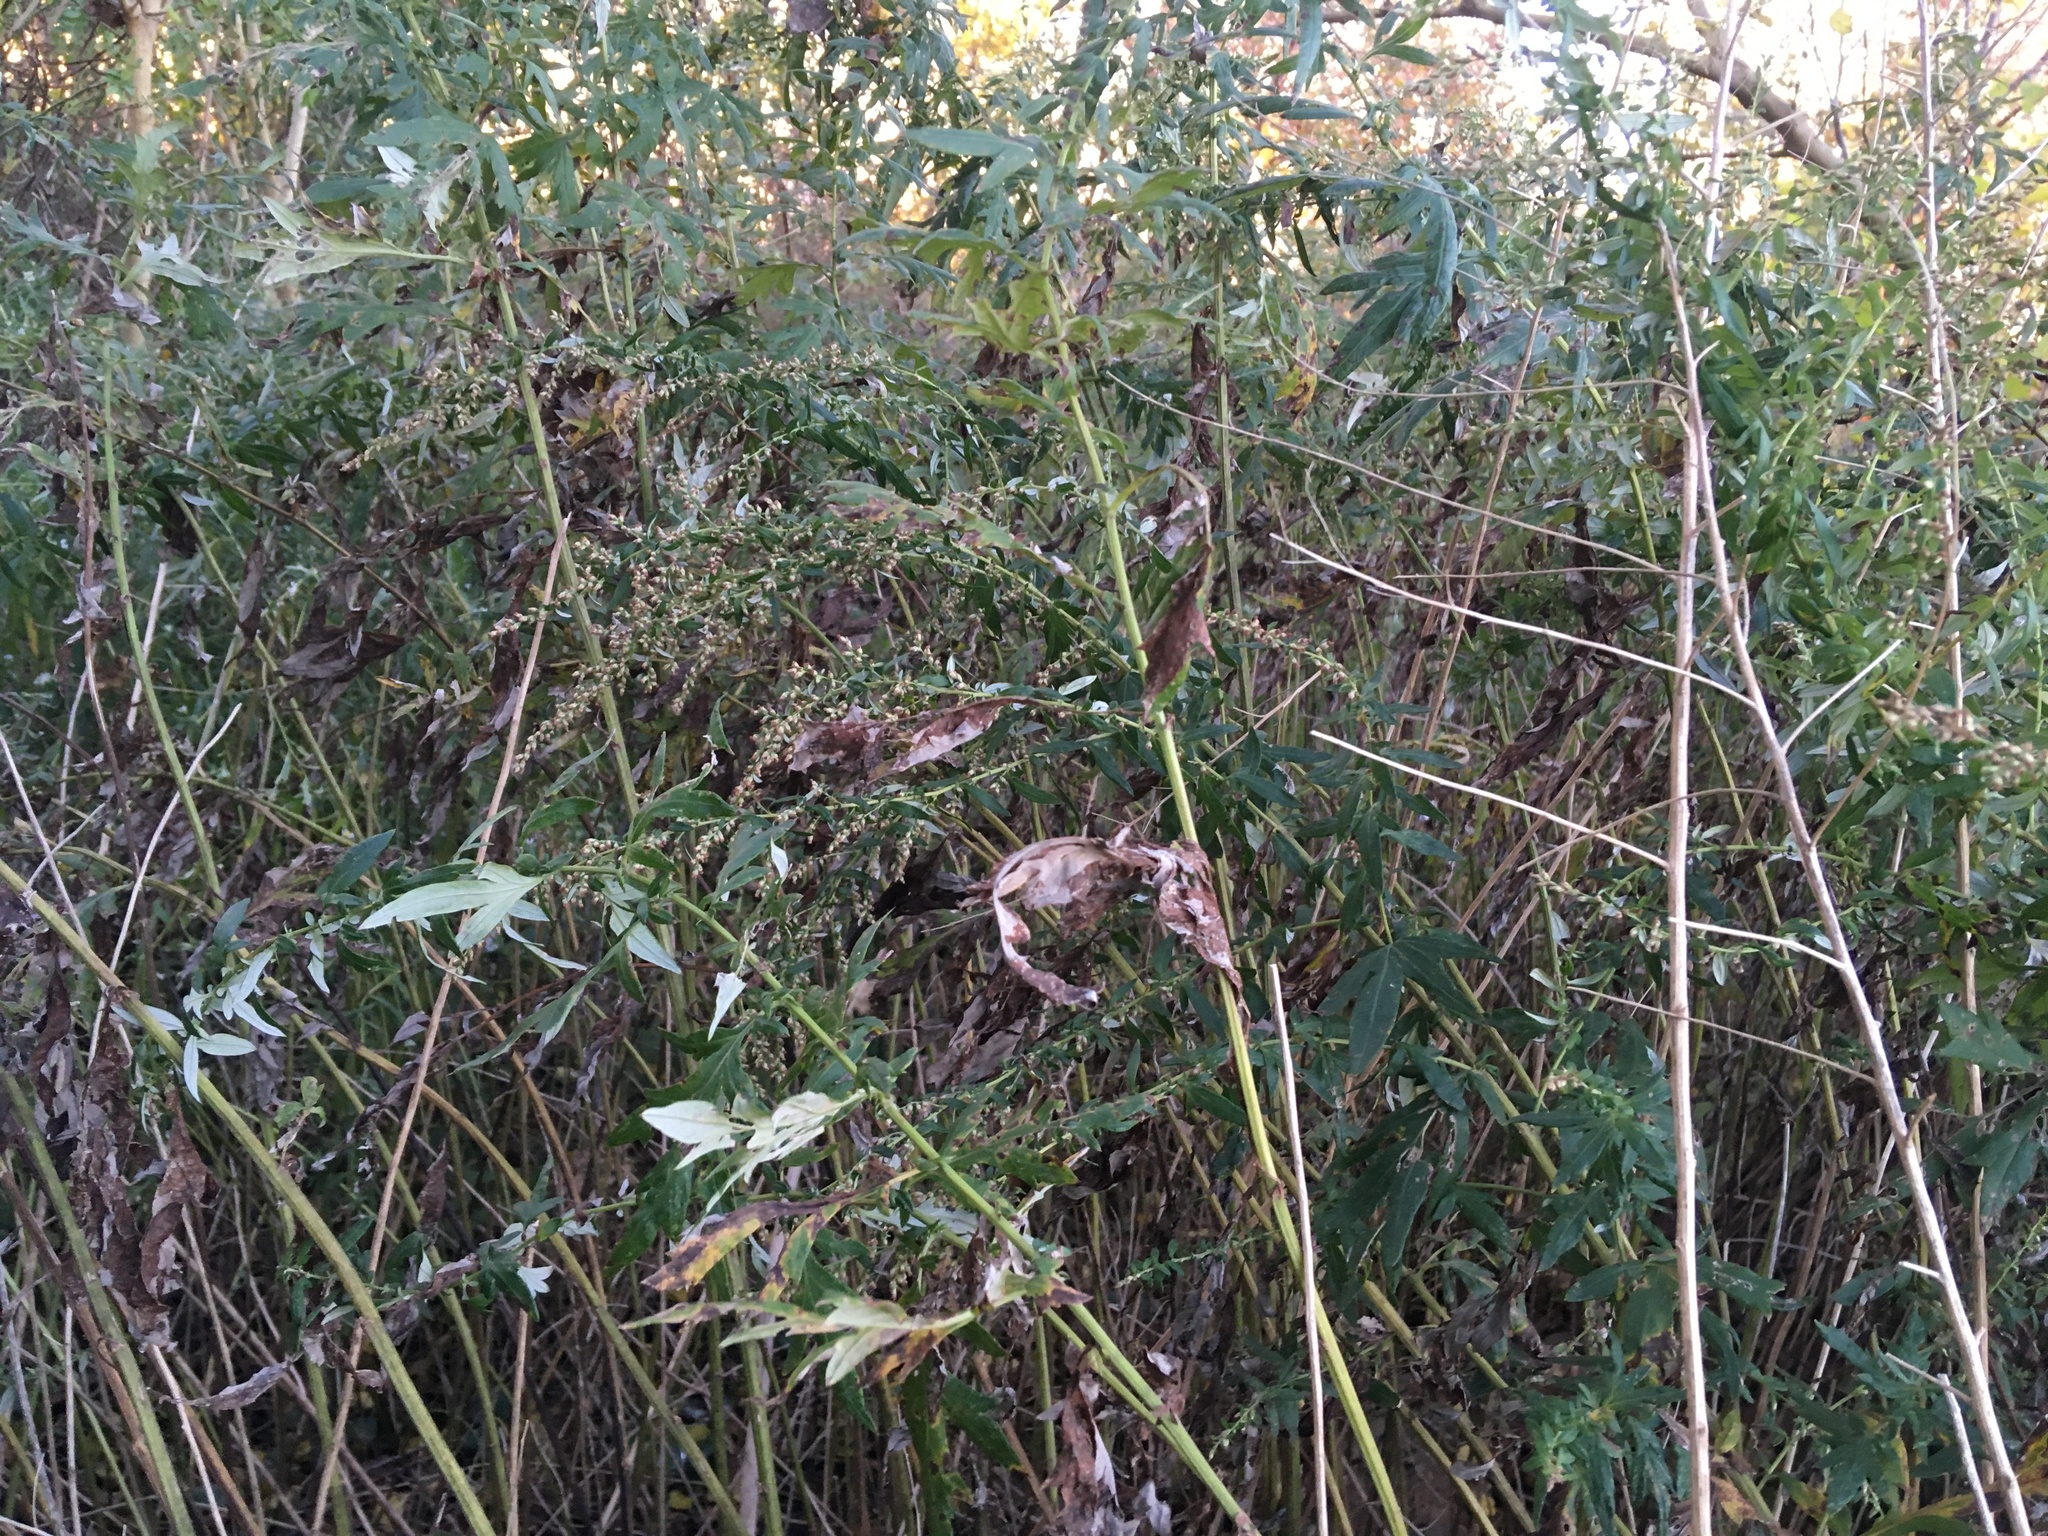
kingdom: Plantae
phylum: Tracheophyta
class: Magnoliopsida
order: Asterales
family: Asteraceae
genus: Artemisia
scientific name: Artemisia vulgaris
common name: Mugwort
